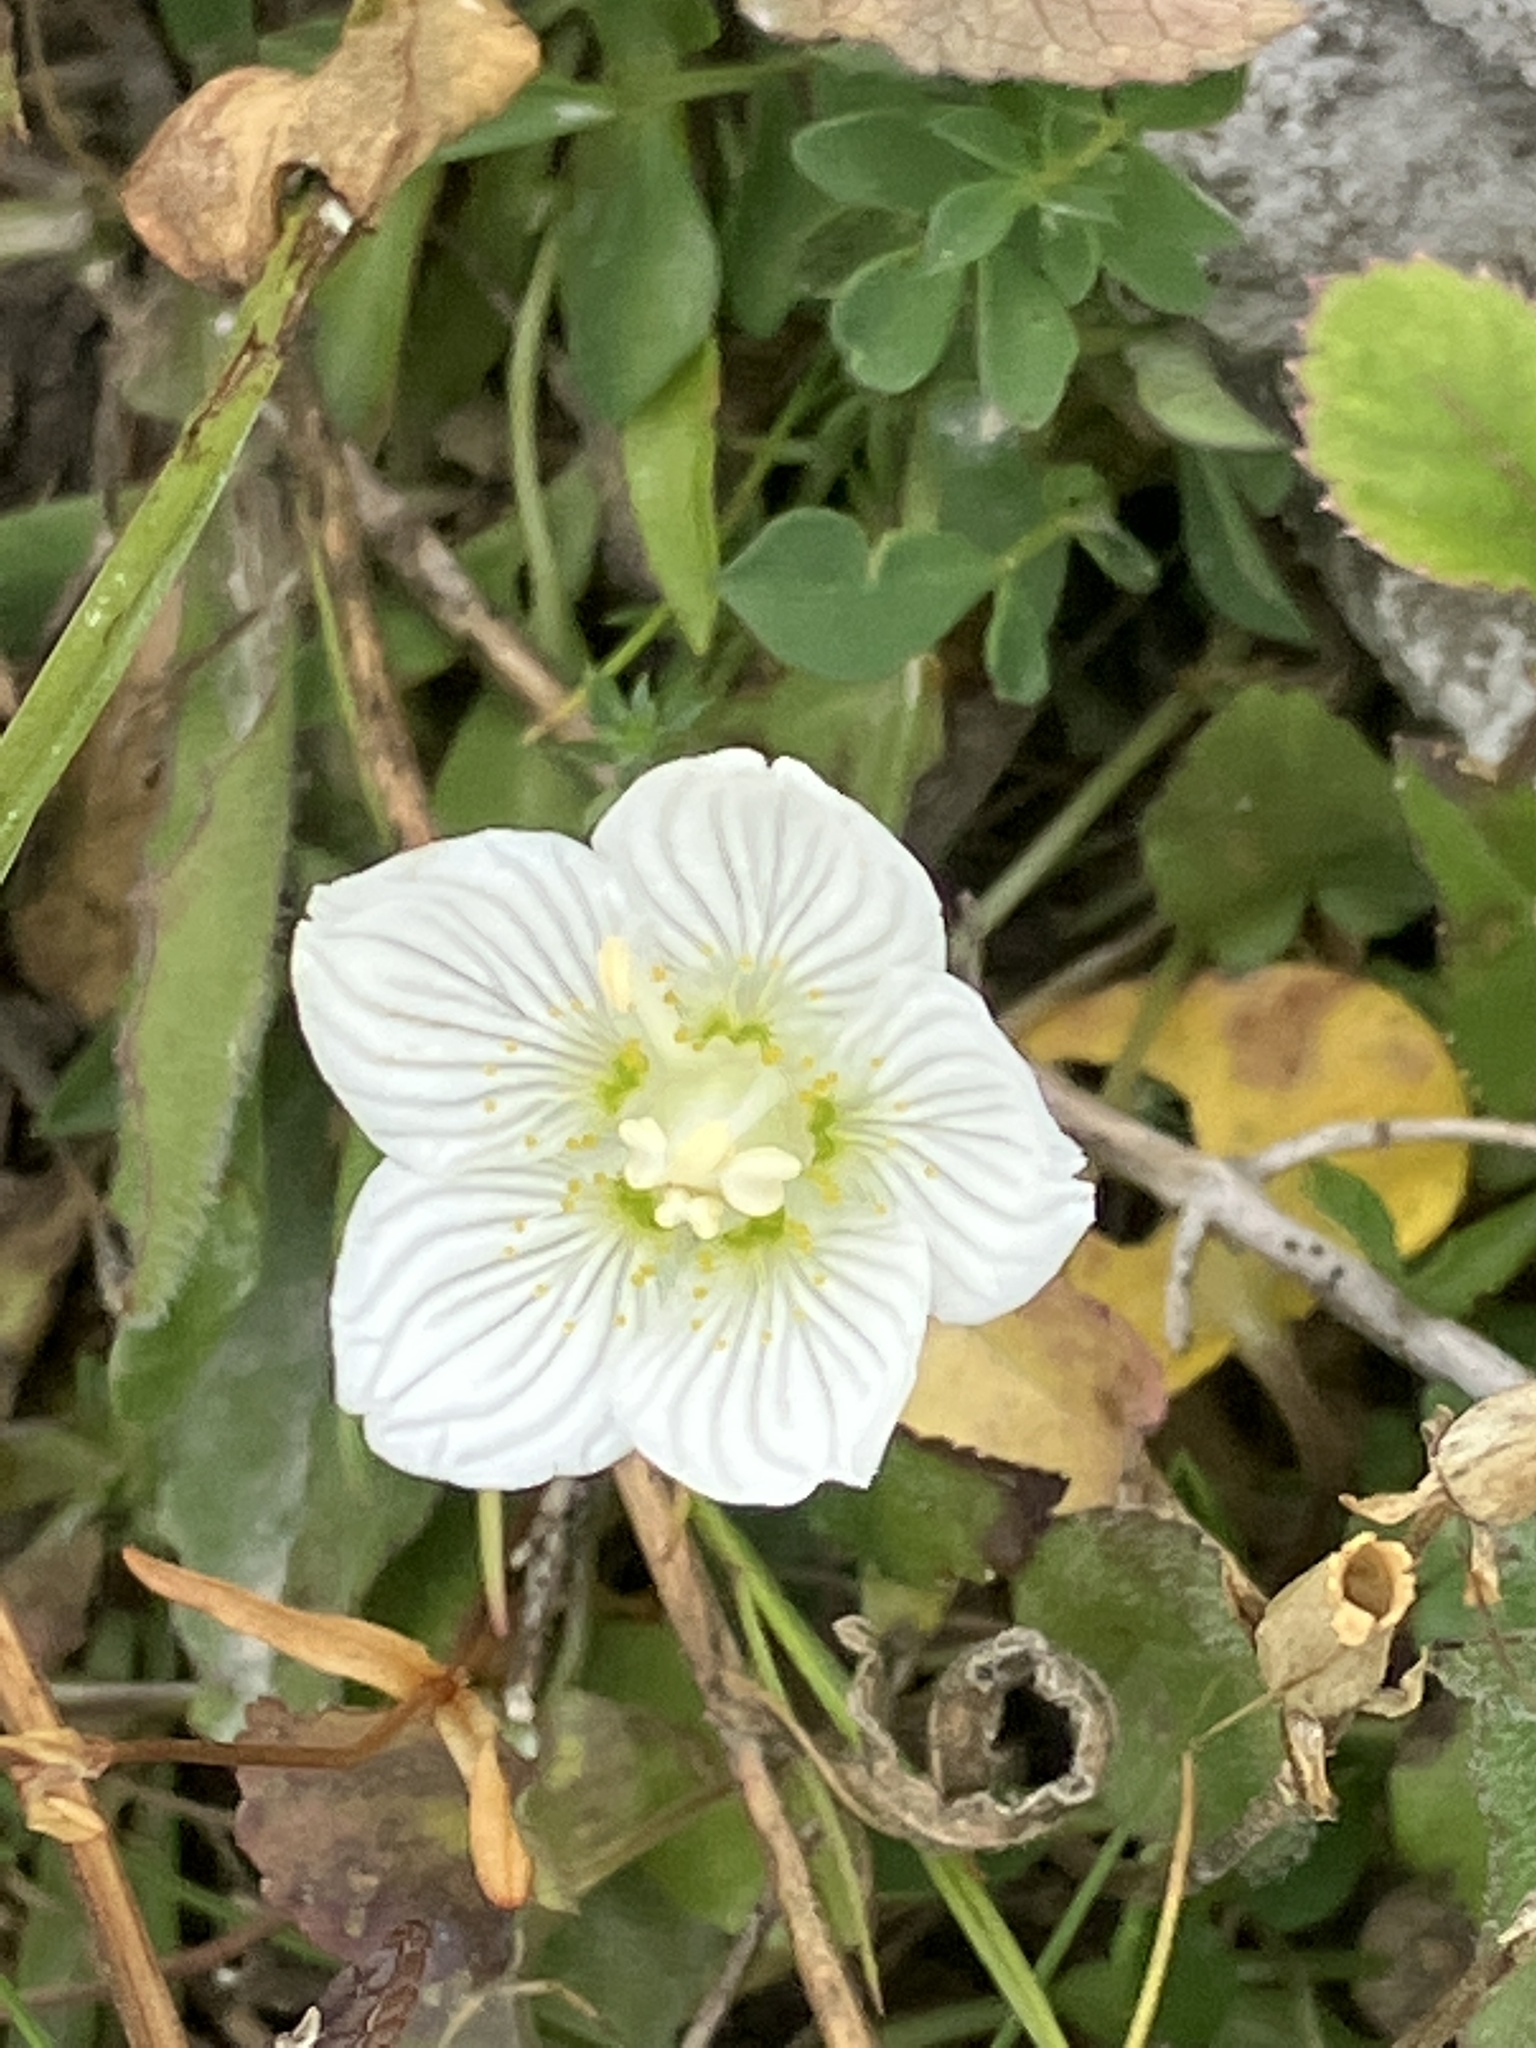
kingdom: Plantae
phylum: Tracheophyta
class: Magnoliopsida
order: Celastrales
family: Parnassiaceae
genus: Parnassia
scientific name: Parnassia palustris
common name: Grass-of-parnassus
